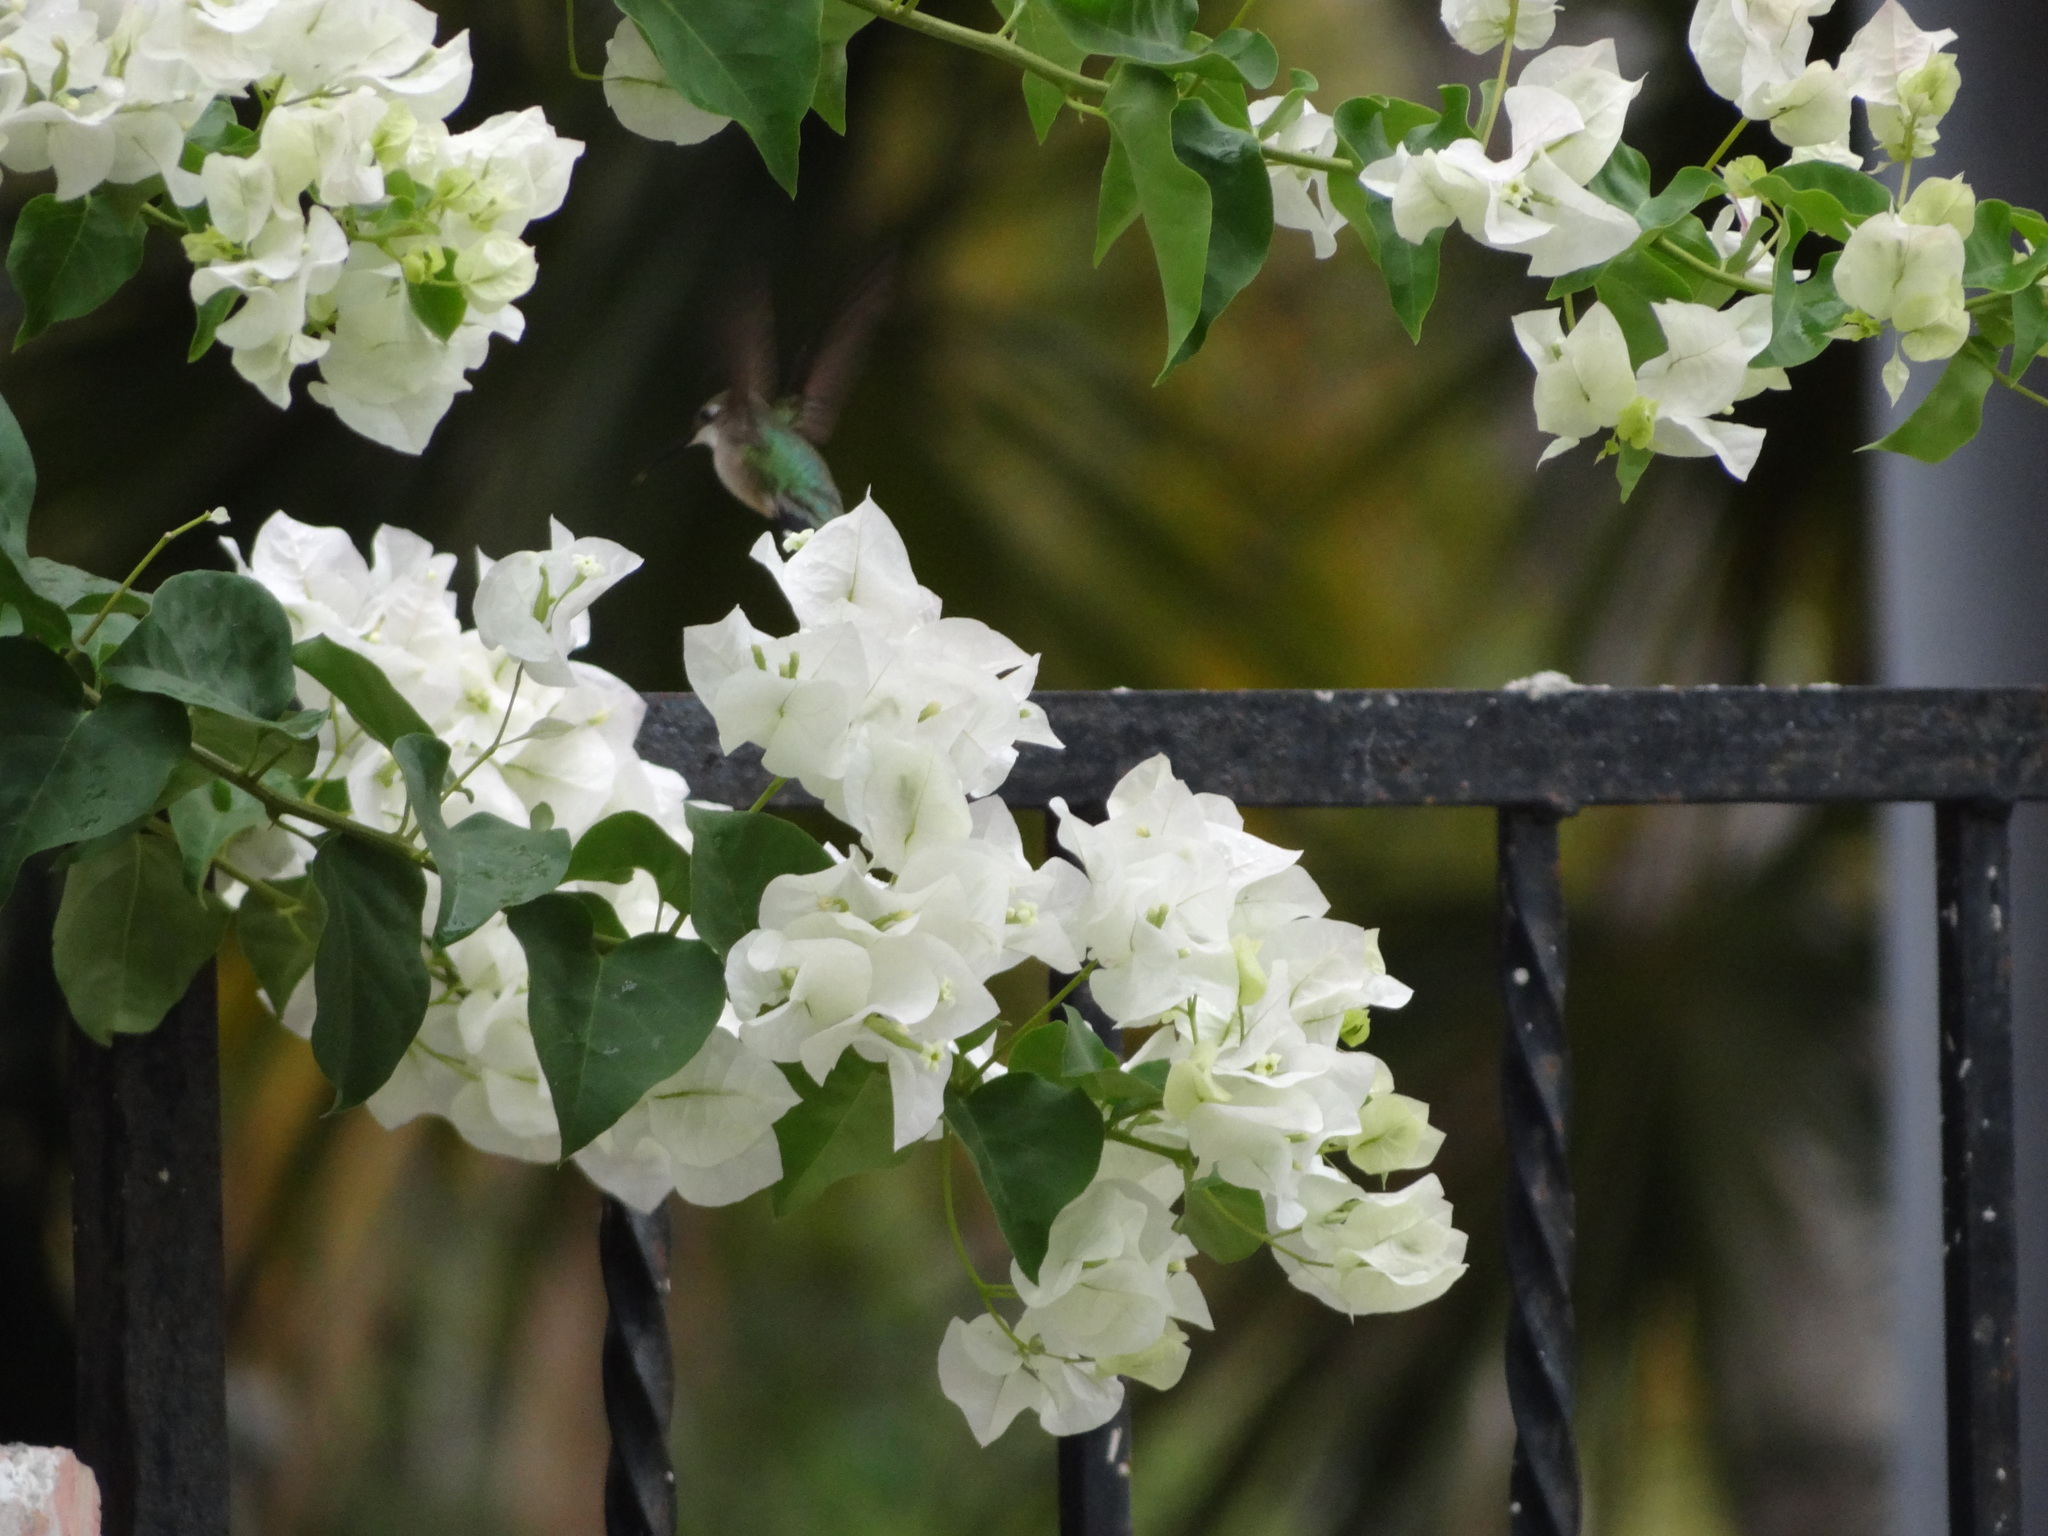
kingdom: Animalia
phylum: Chordata
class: Aves
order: Apodiformes
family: Trochilidae
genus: Archilochus
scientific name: Archilochus colubris
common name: Ruby-throated hummingbird
